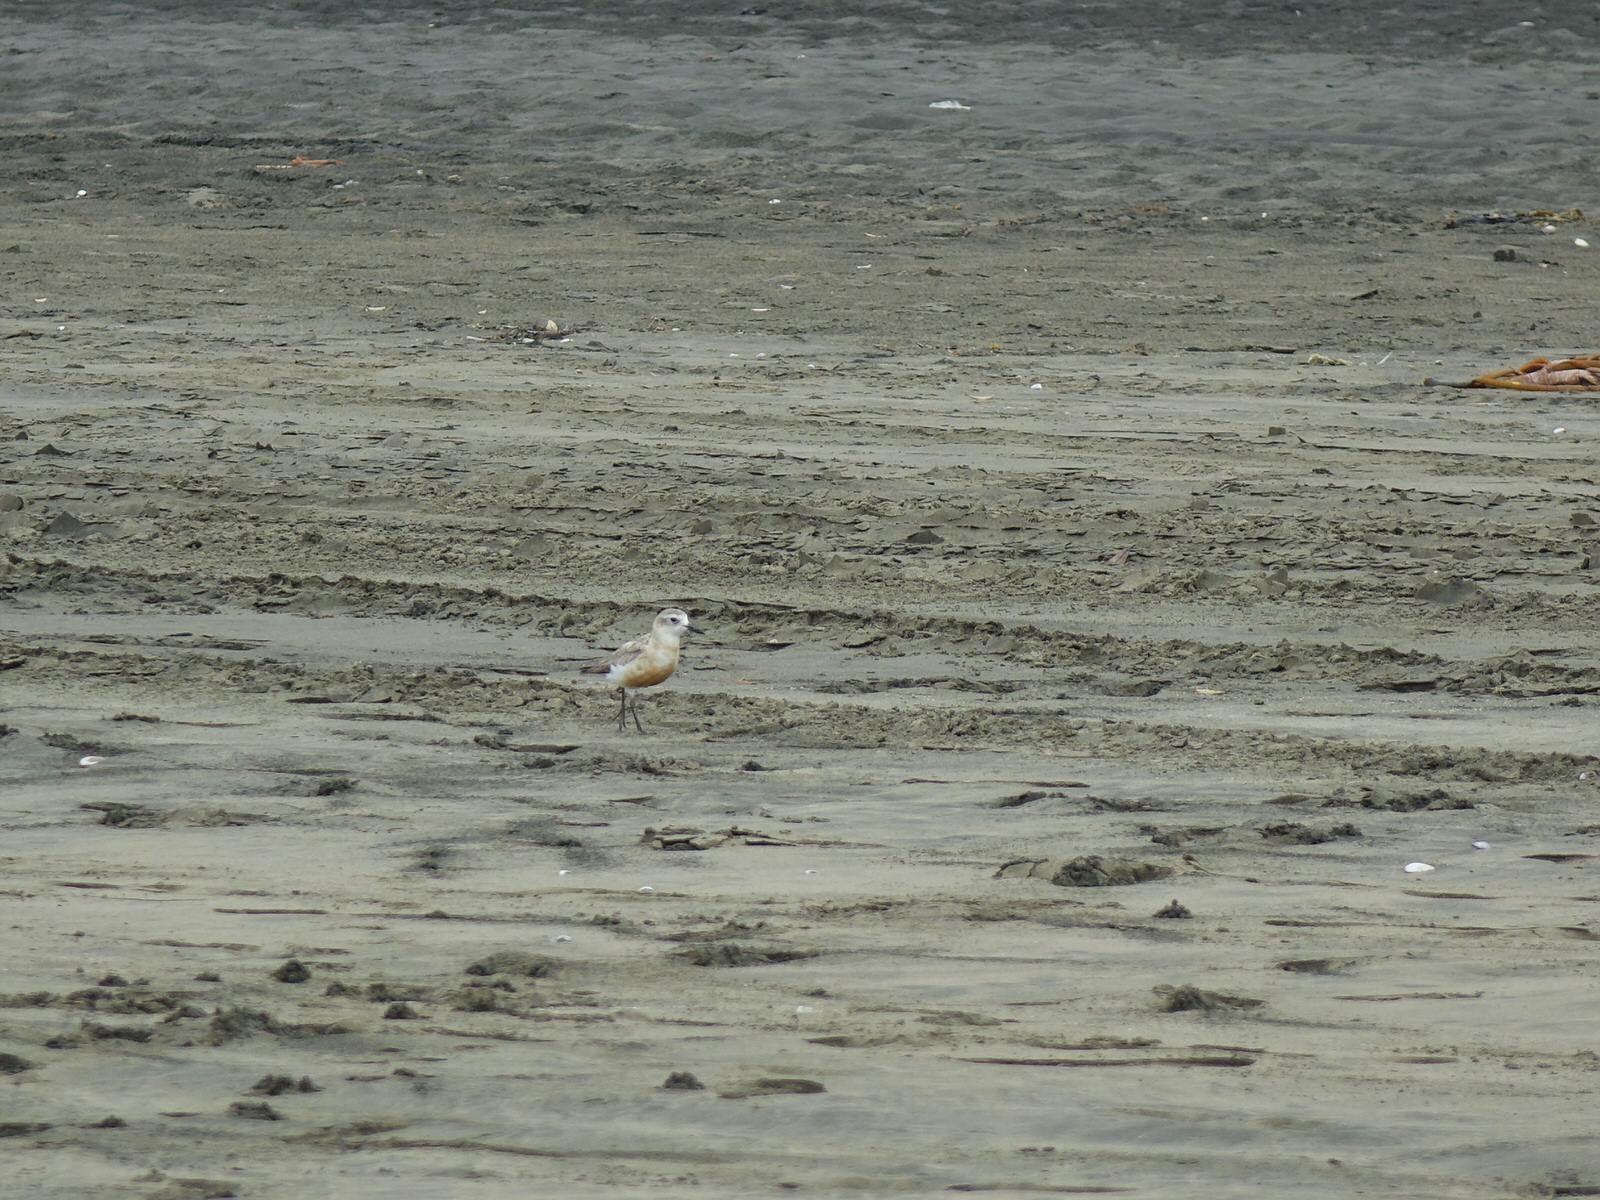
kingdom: Animalia
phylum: Chordata
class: Aves
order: Charadriiformes
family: Charadriidae
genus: Anarhynchus
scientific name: Anarhynchus
